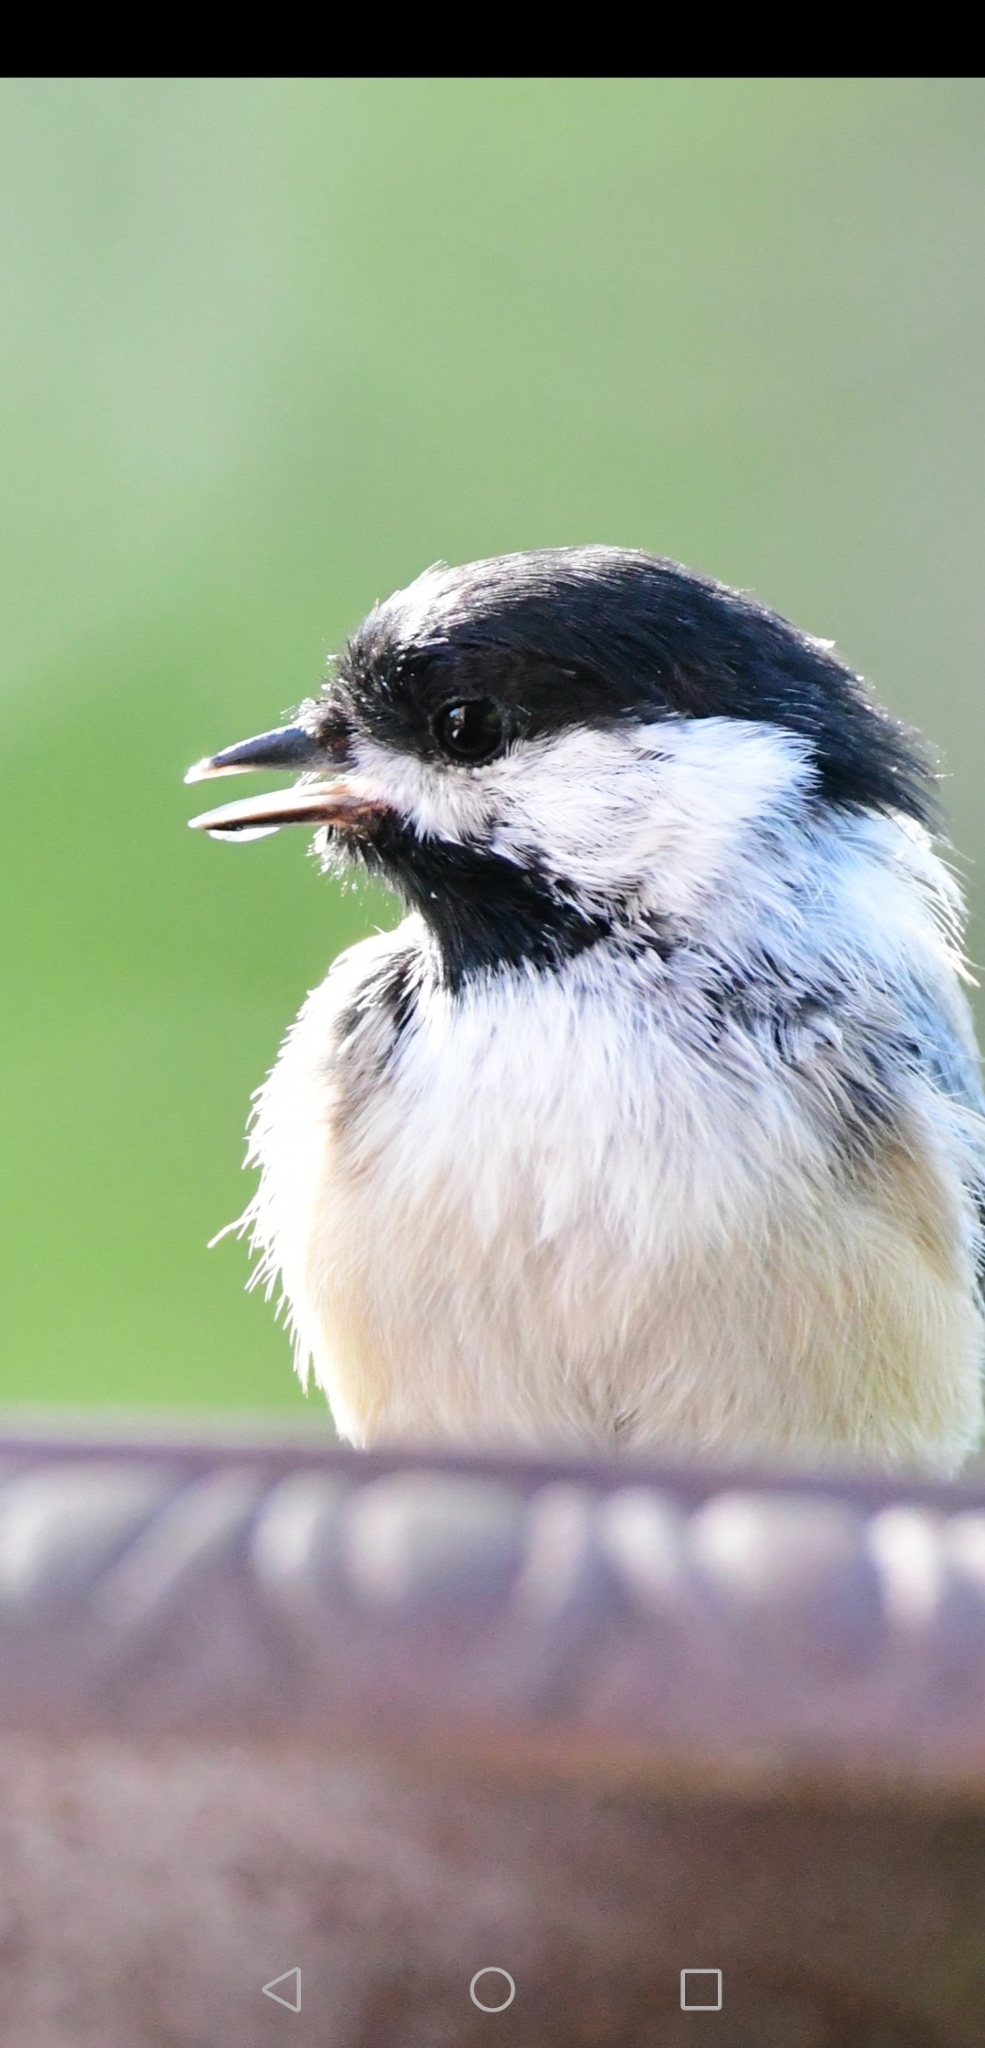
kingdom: Animalia
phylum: Chordata
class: Aves
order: Passeriformes
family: Paridae
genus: Poecile
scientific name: Poecile atricapillus
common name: Black-capped chickadee
